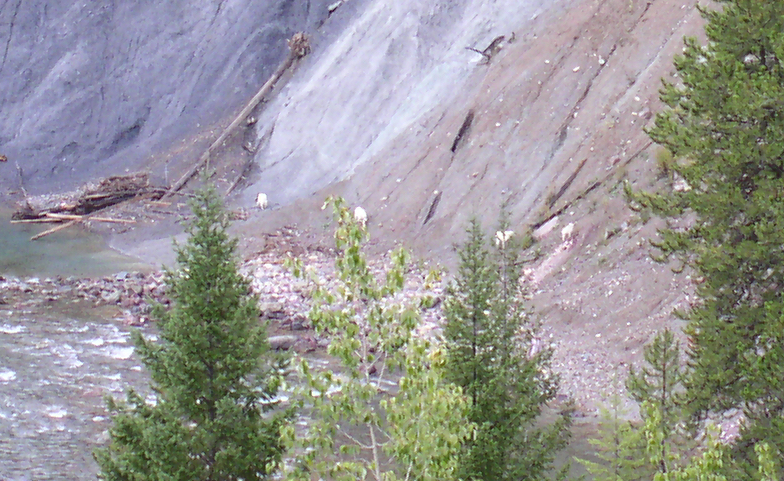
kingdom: Animalia
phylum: Chordata
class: Mammalia
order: Artiodactyla
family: Bovidae
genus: Oreamnos
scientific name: Oreamnos americanus
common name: Mountain goat
